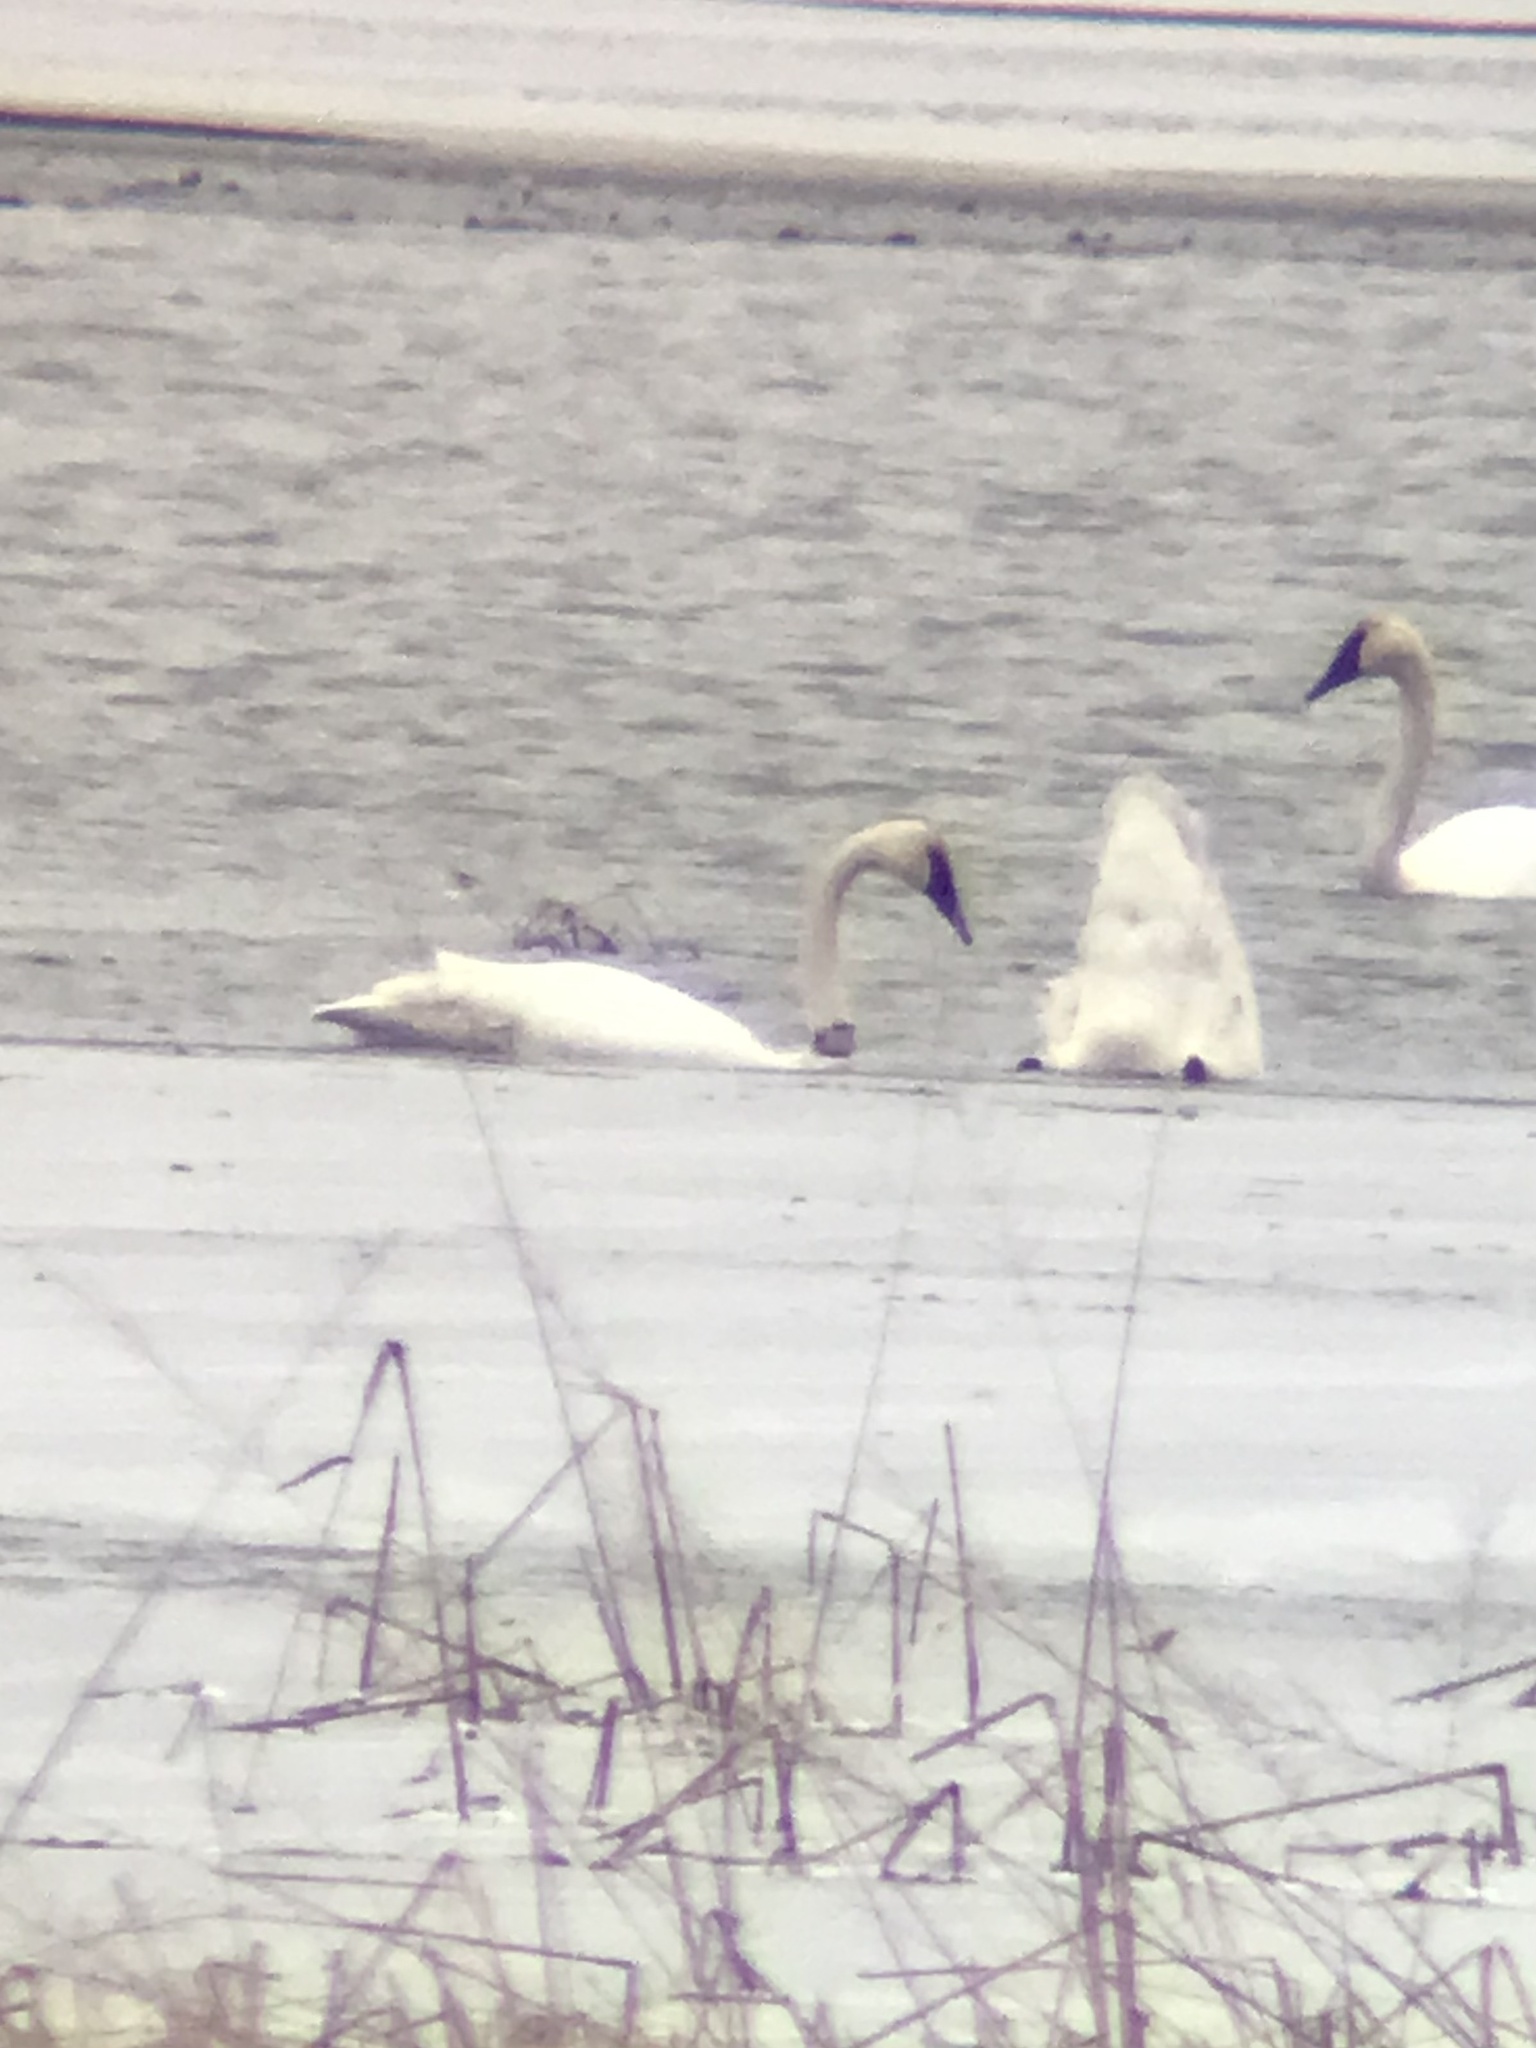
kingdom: Animalia
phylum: Chordata
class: Aves
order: Anseriformes
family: Anatidae
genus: Cygnus
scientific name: Cygnus buccinator
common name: Trumpeter swan
